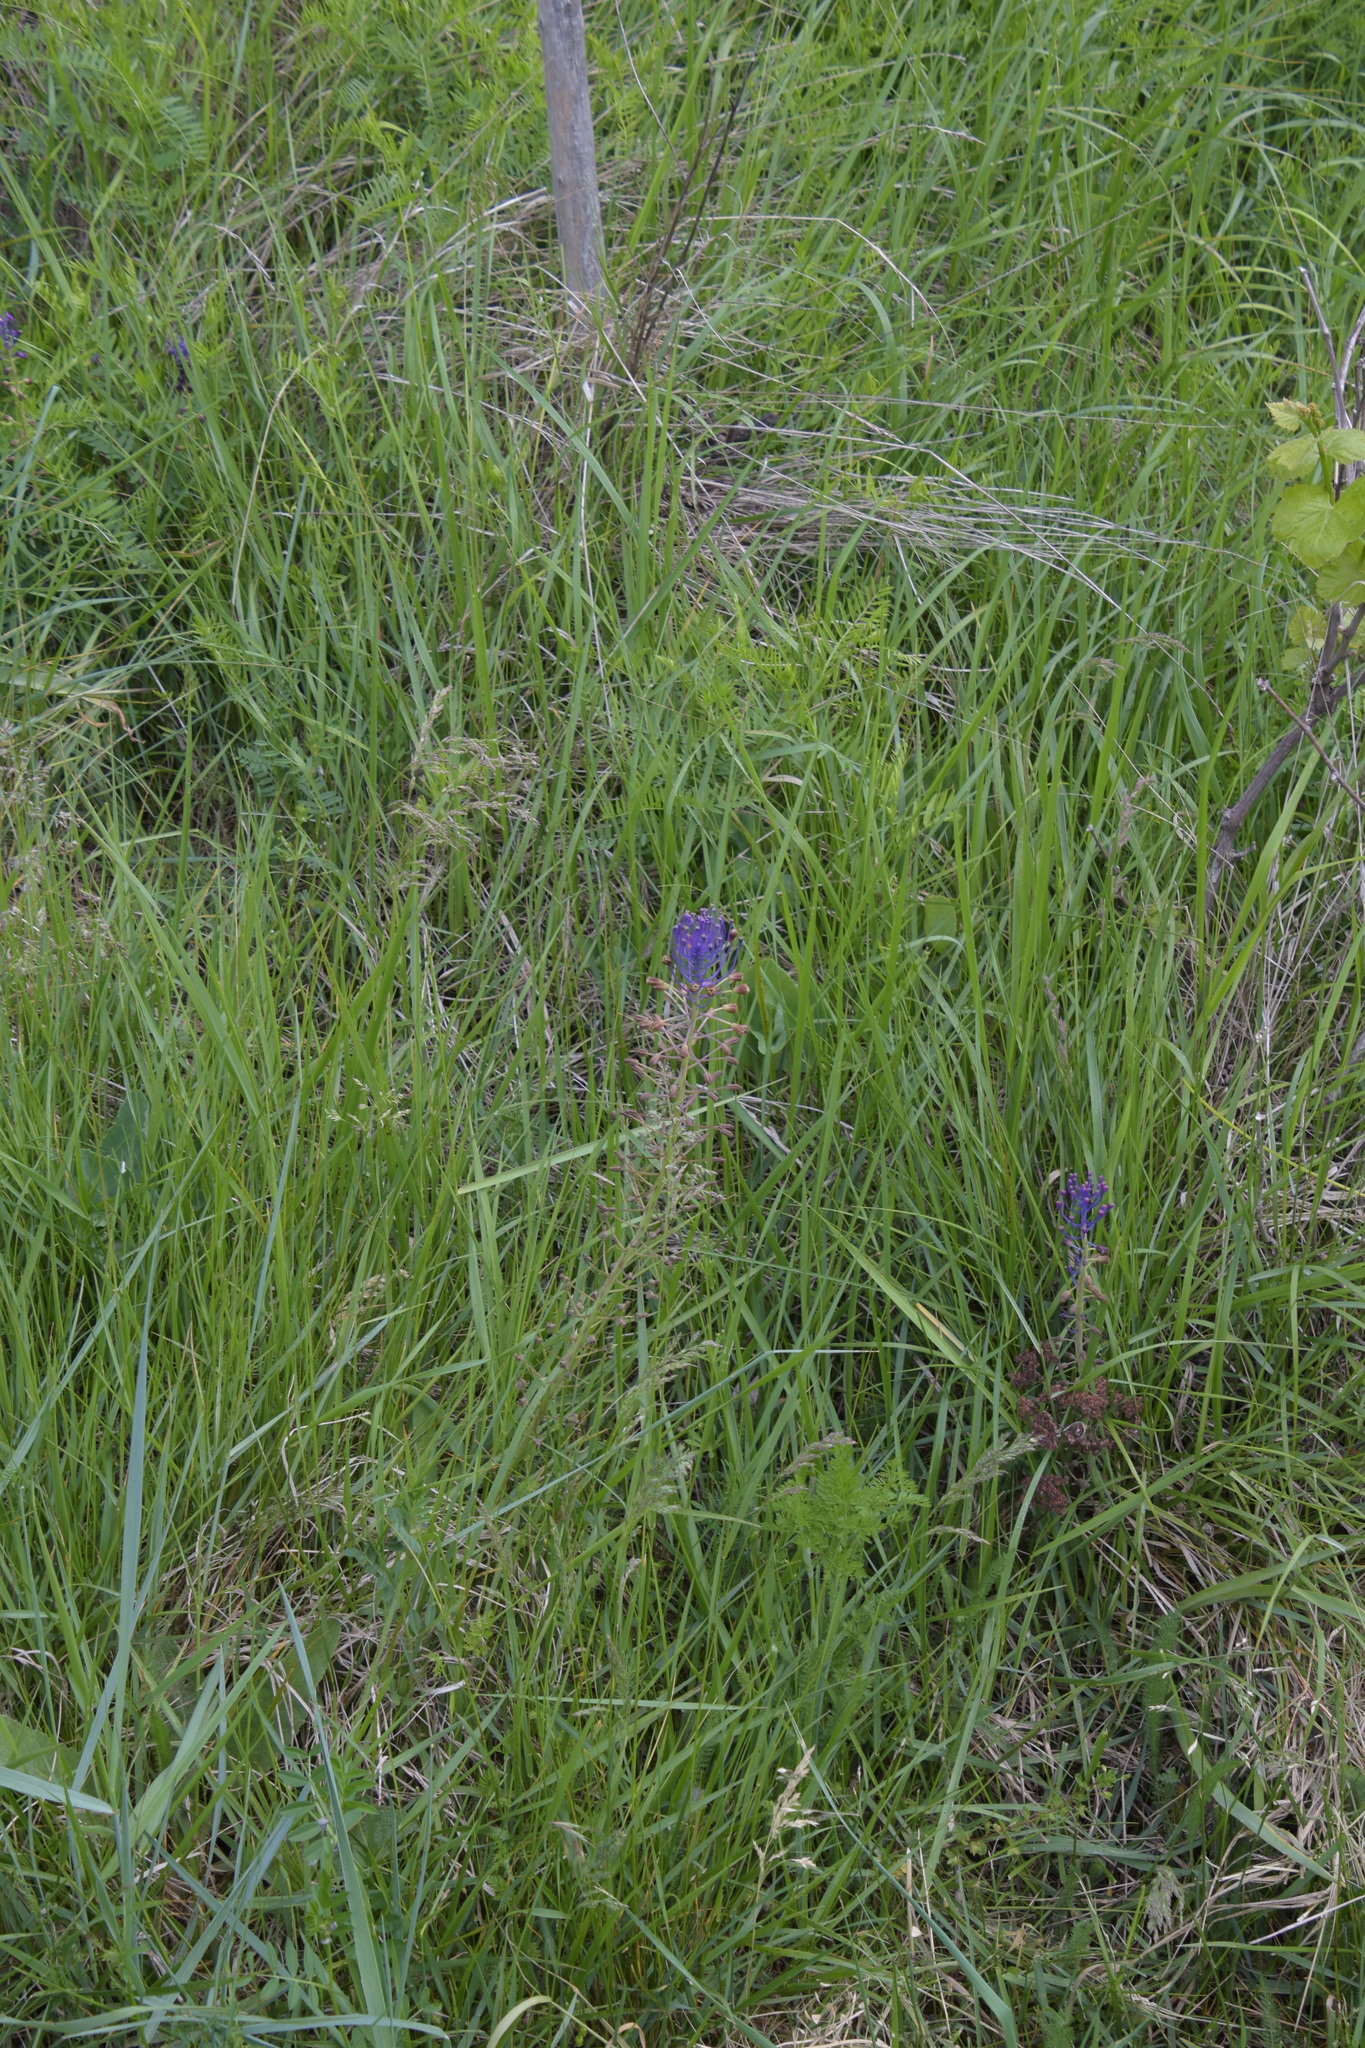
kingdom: Plantae
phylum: Tracheophyta
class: Liliopsida
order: Asparagales
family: Asparagaceae
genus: Muscari
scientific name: Muscari comosum
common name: Tassel hyacinth
